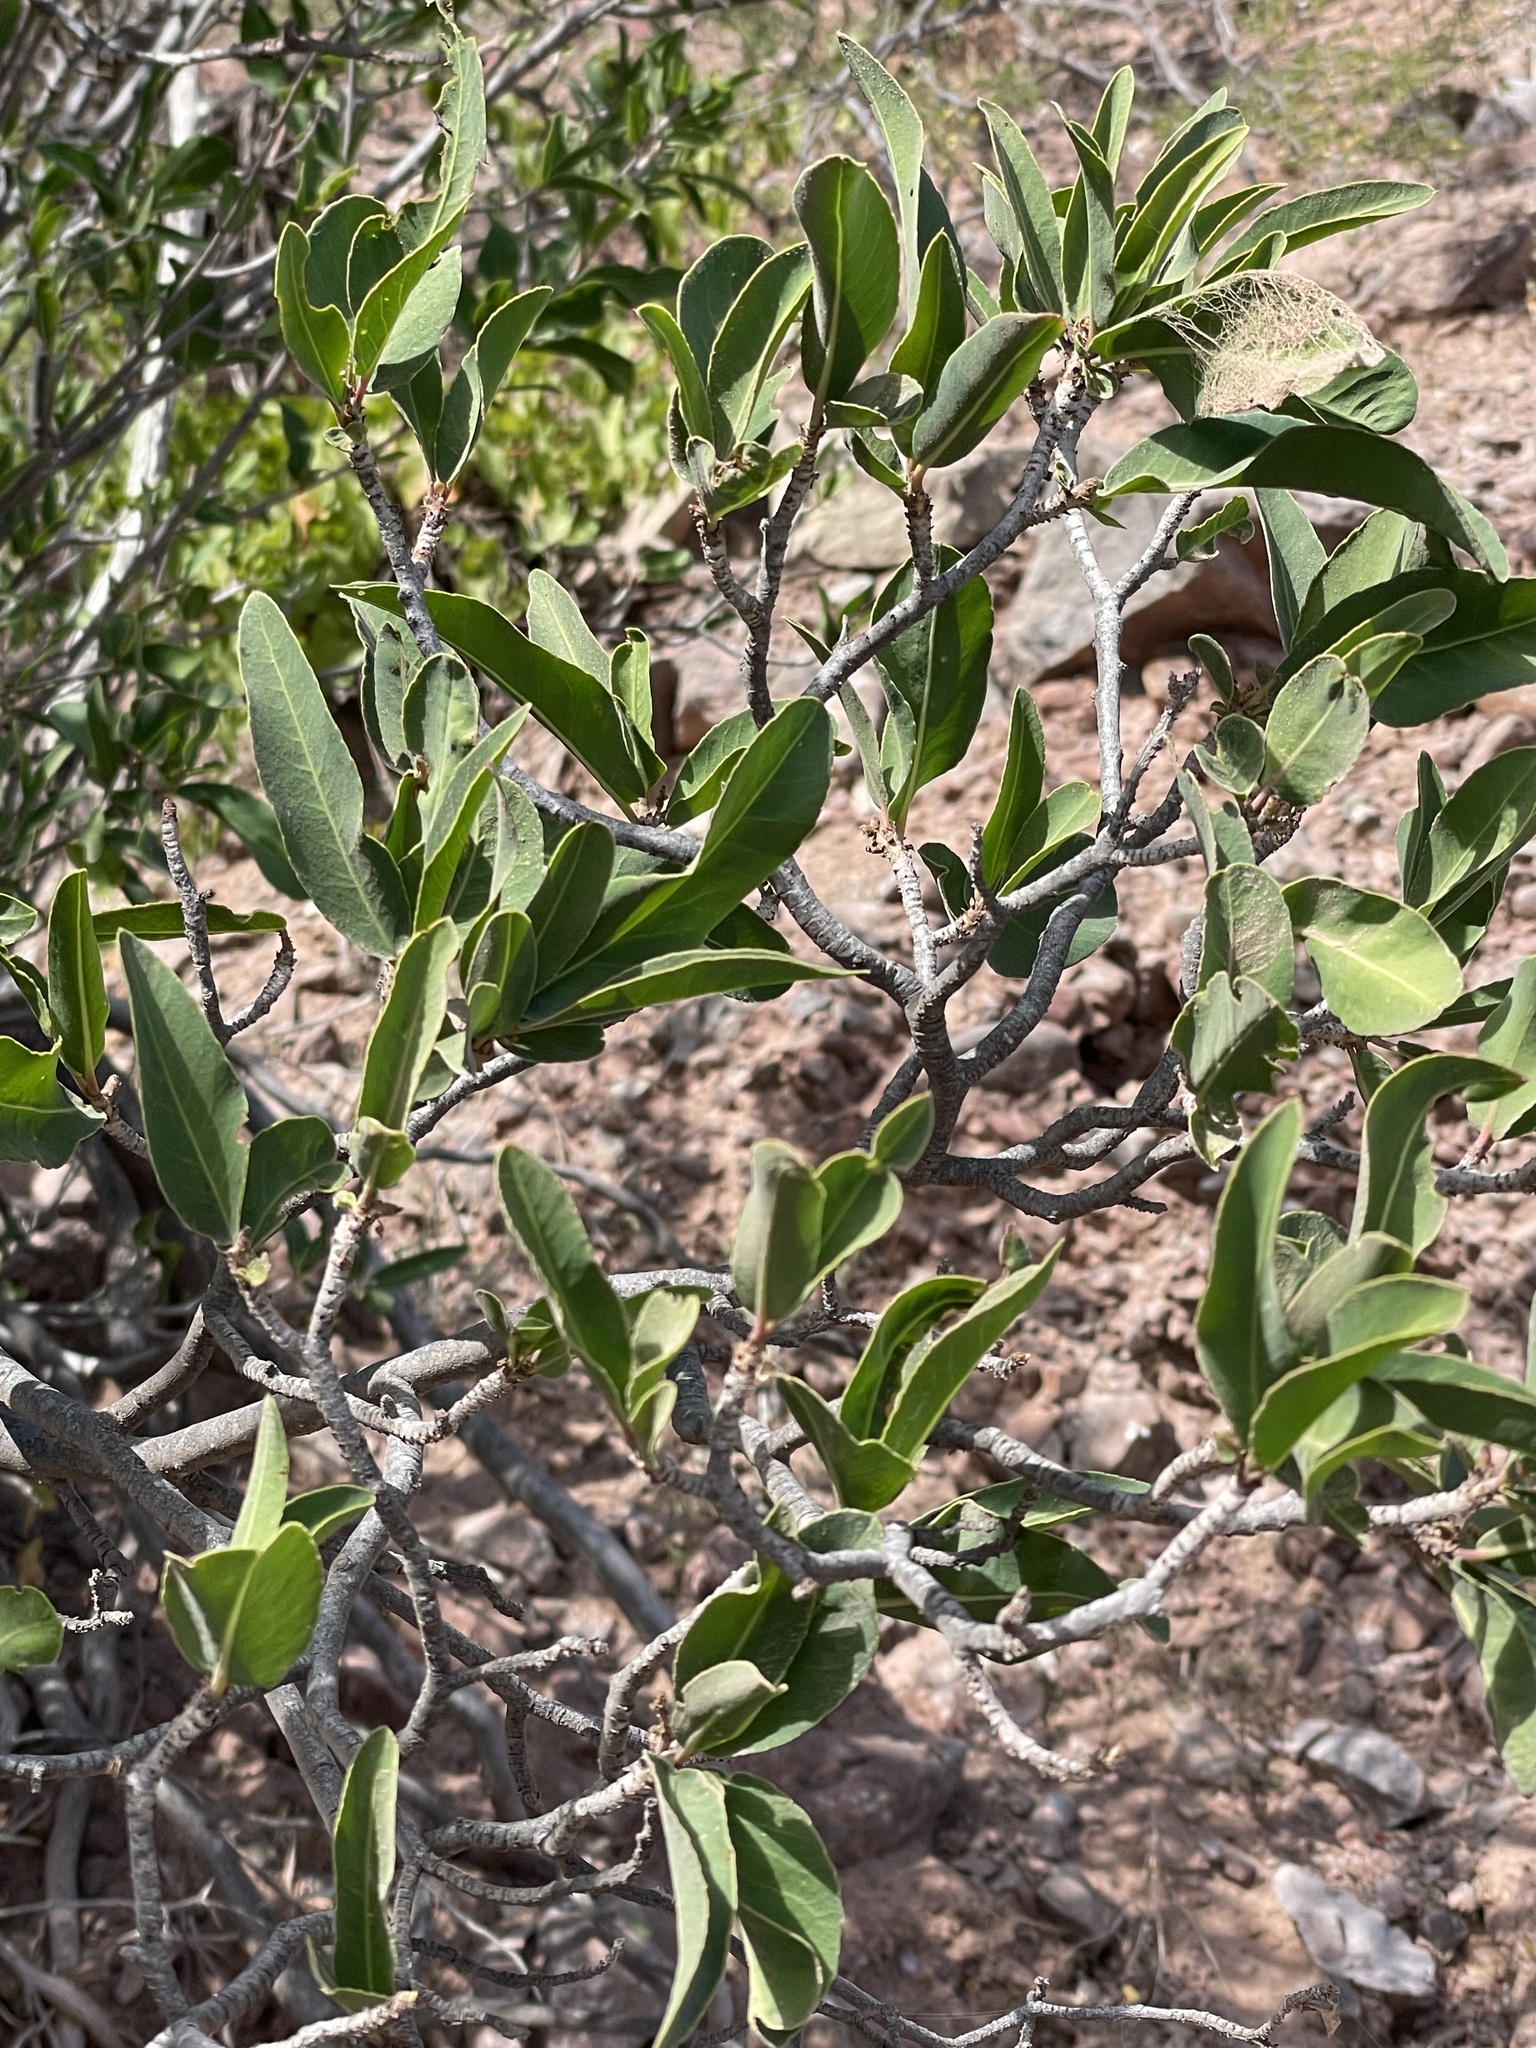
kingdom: Plantae
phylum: Tracheophyta
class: Magnoliopsida
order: Malpighiales
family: Euphorbiaceae
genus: Pleradenophora
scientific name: Pleradenophora bilocularis
